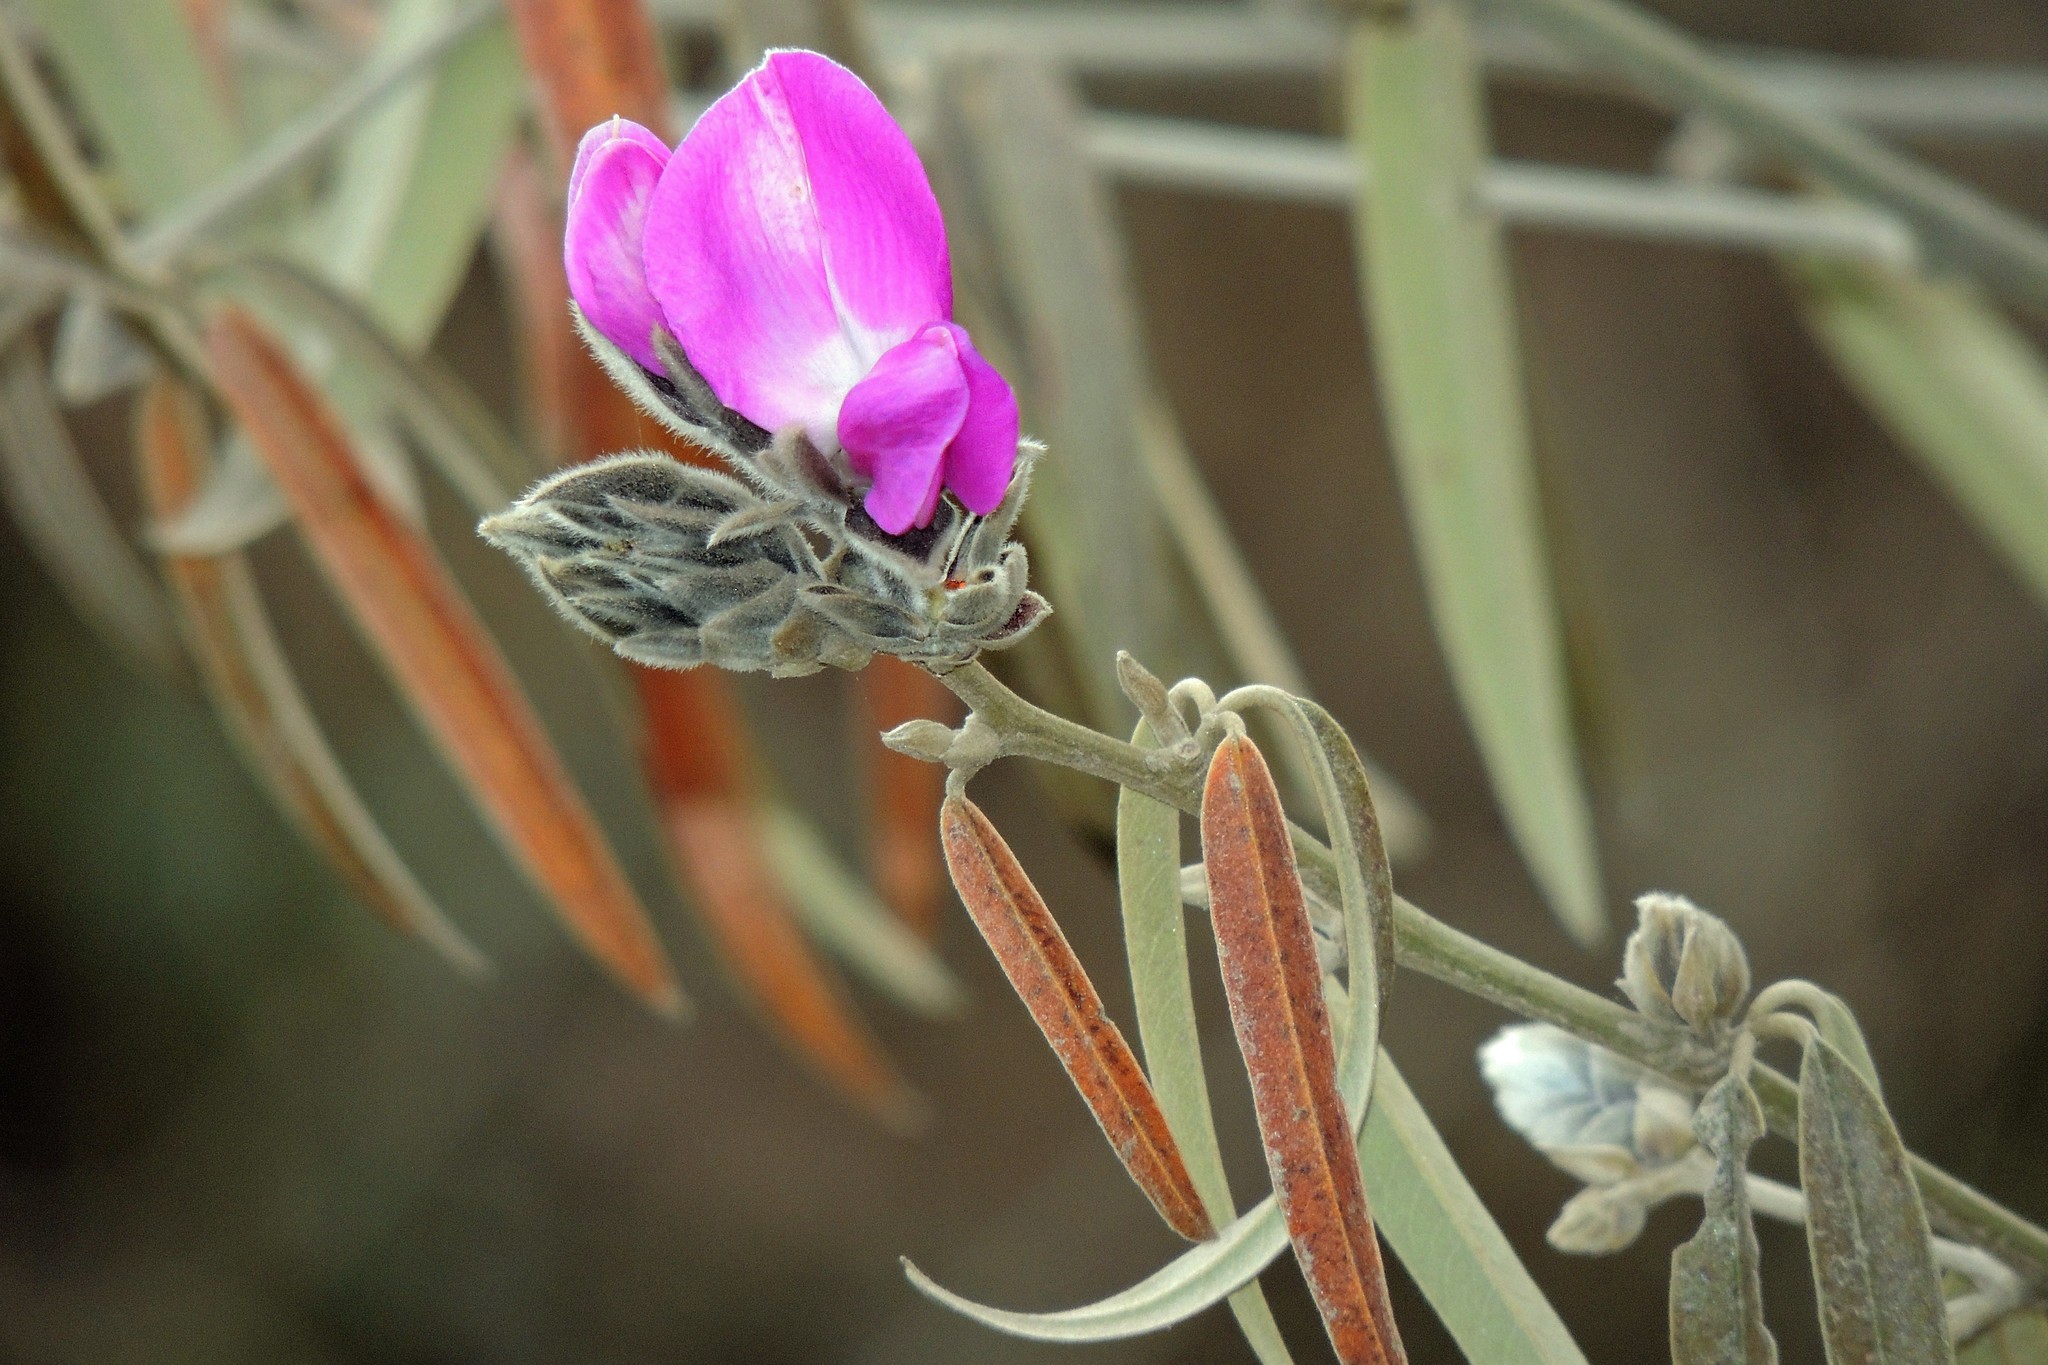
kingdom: Plantae
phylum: Tracheophyta
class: Magnoliopsida
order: Fabales
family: Fabaceae
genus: Nanogalactia
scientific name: Nanogalactia heterophylla
